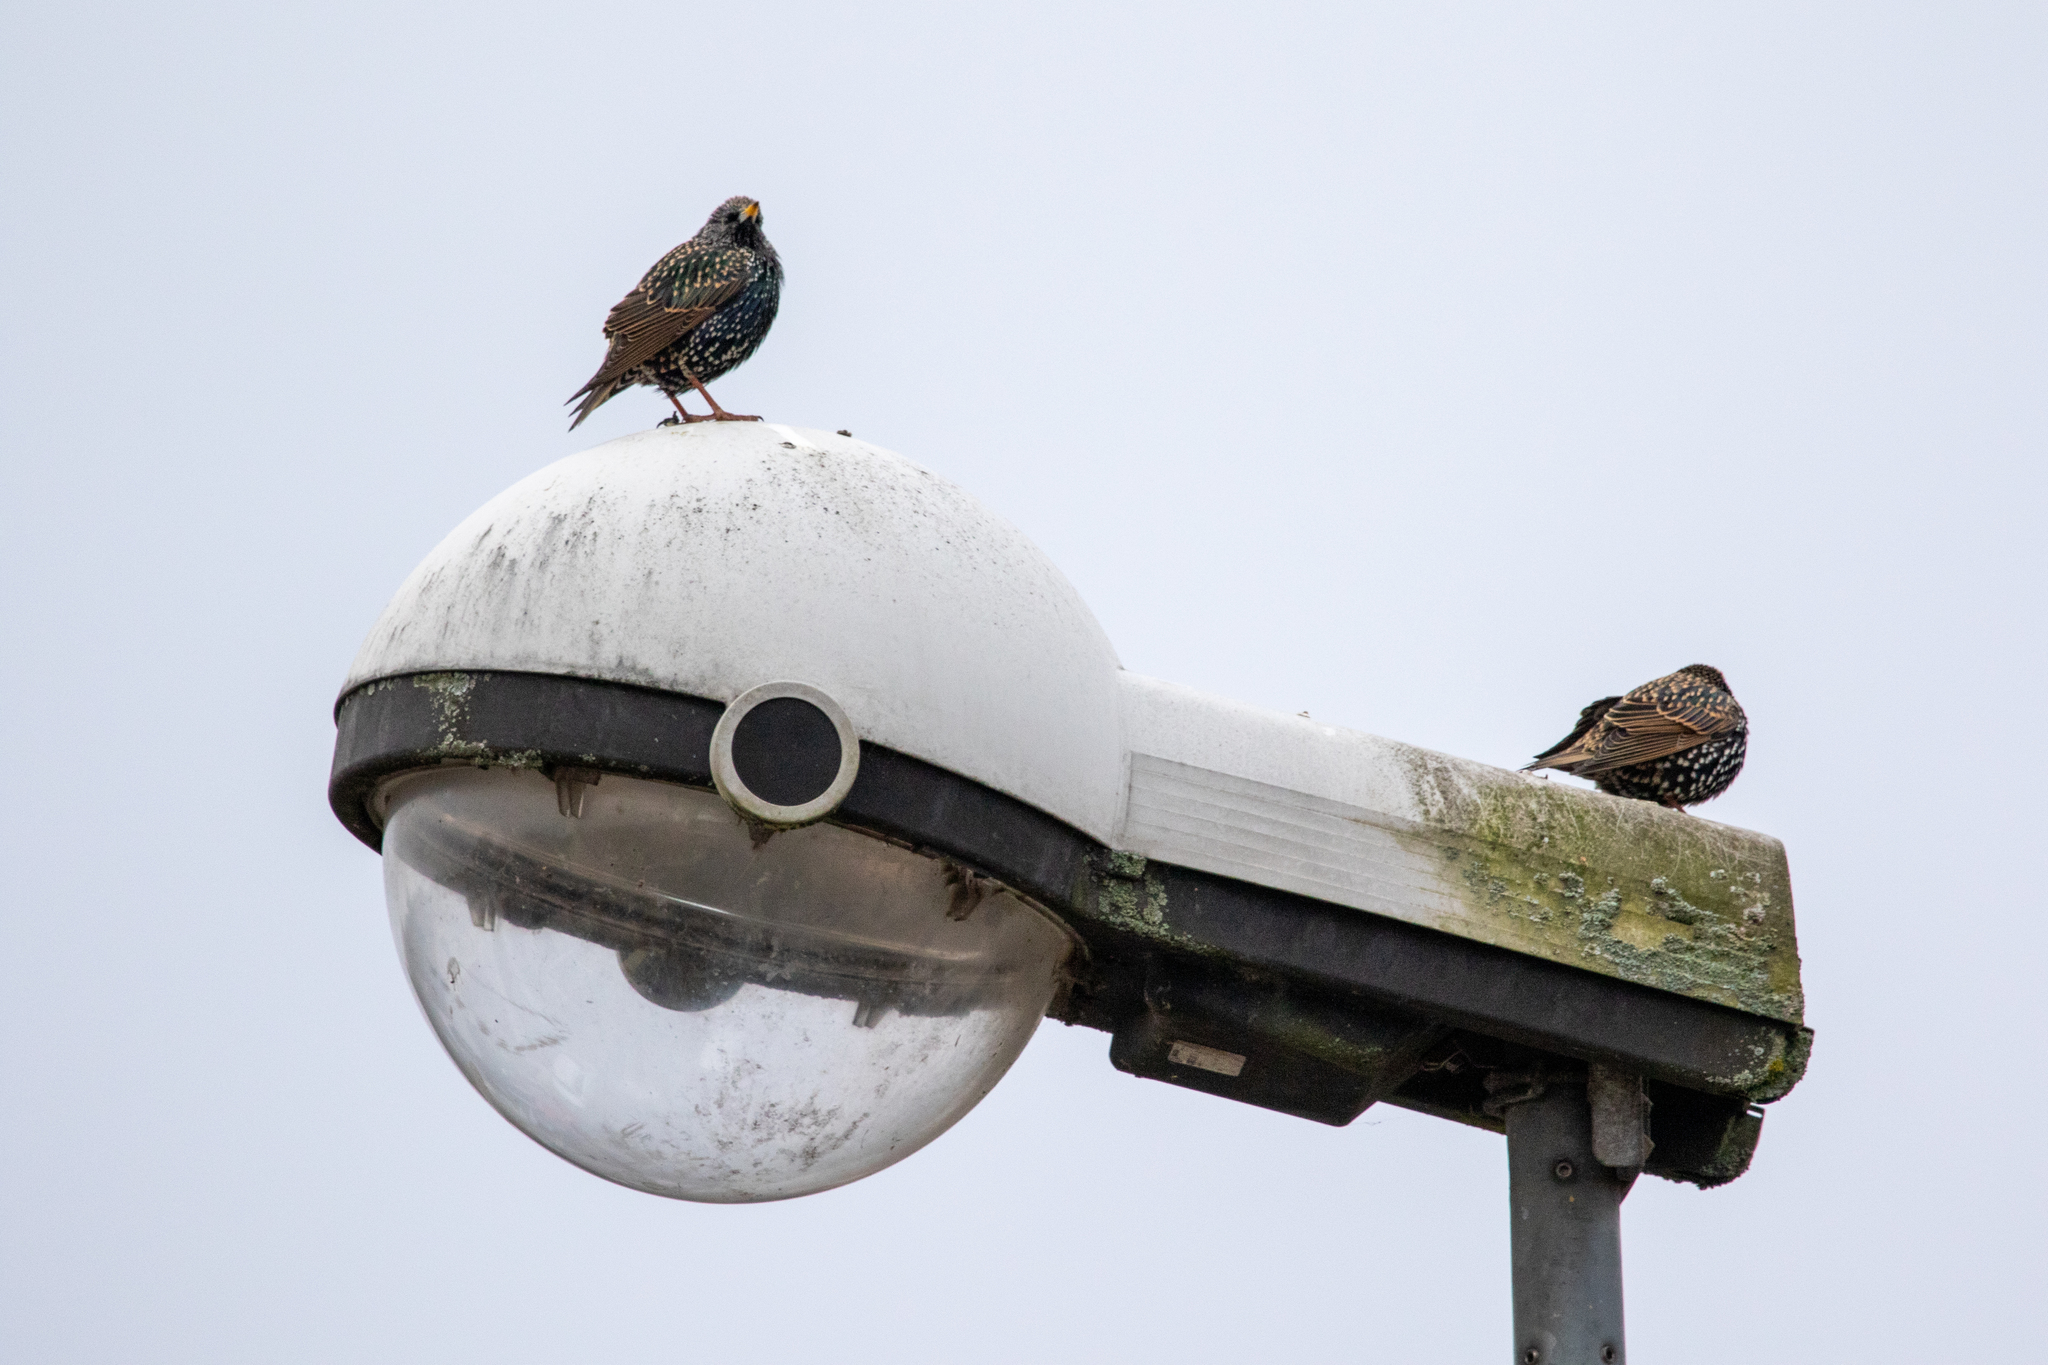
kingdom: Animalia
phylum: Chordata
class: Aves
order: Passeriformes
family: Sturnidae
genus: Sturnus
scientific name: Sturnus vulgaris
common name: Common starling
